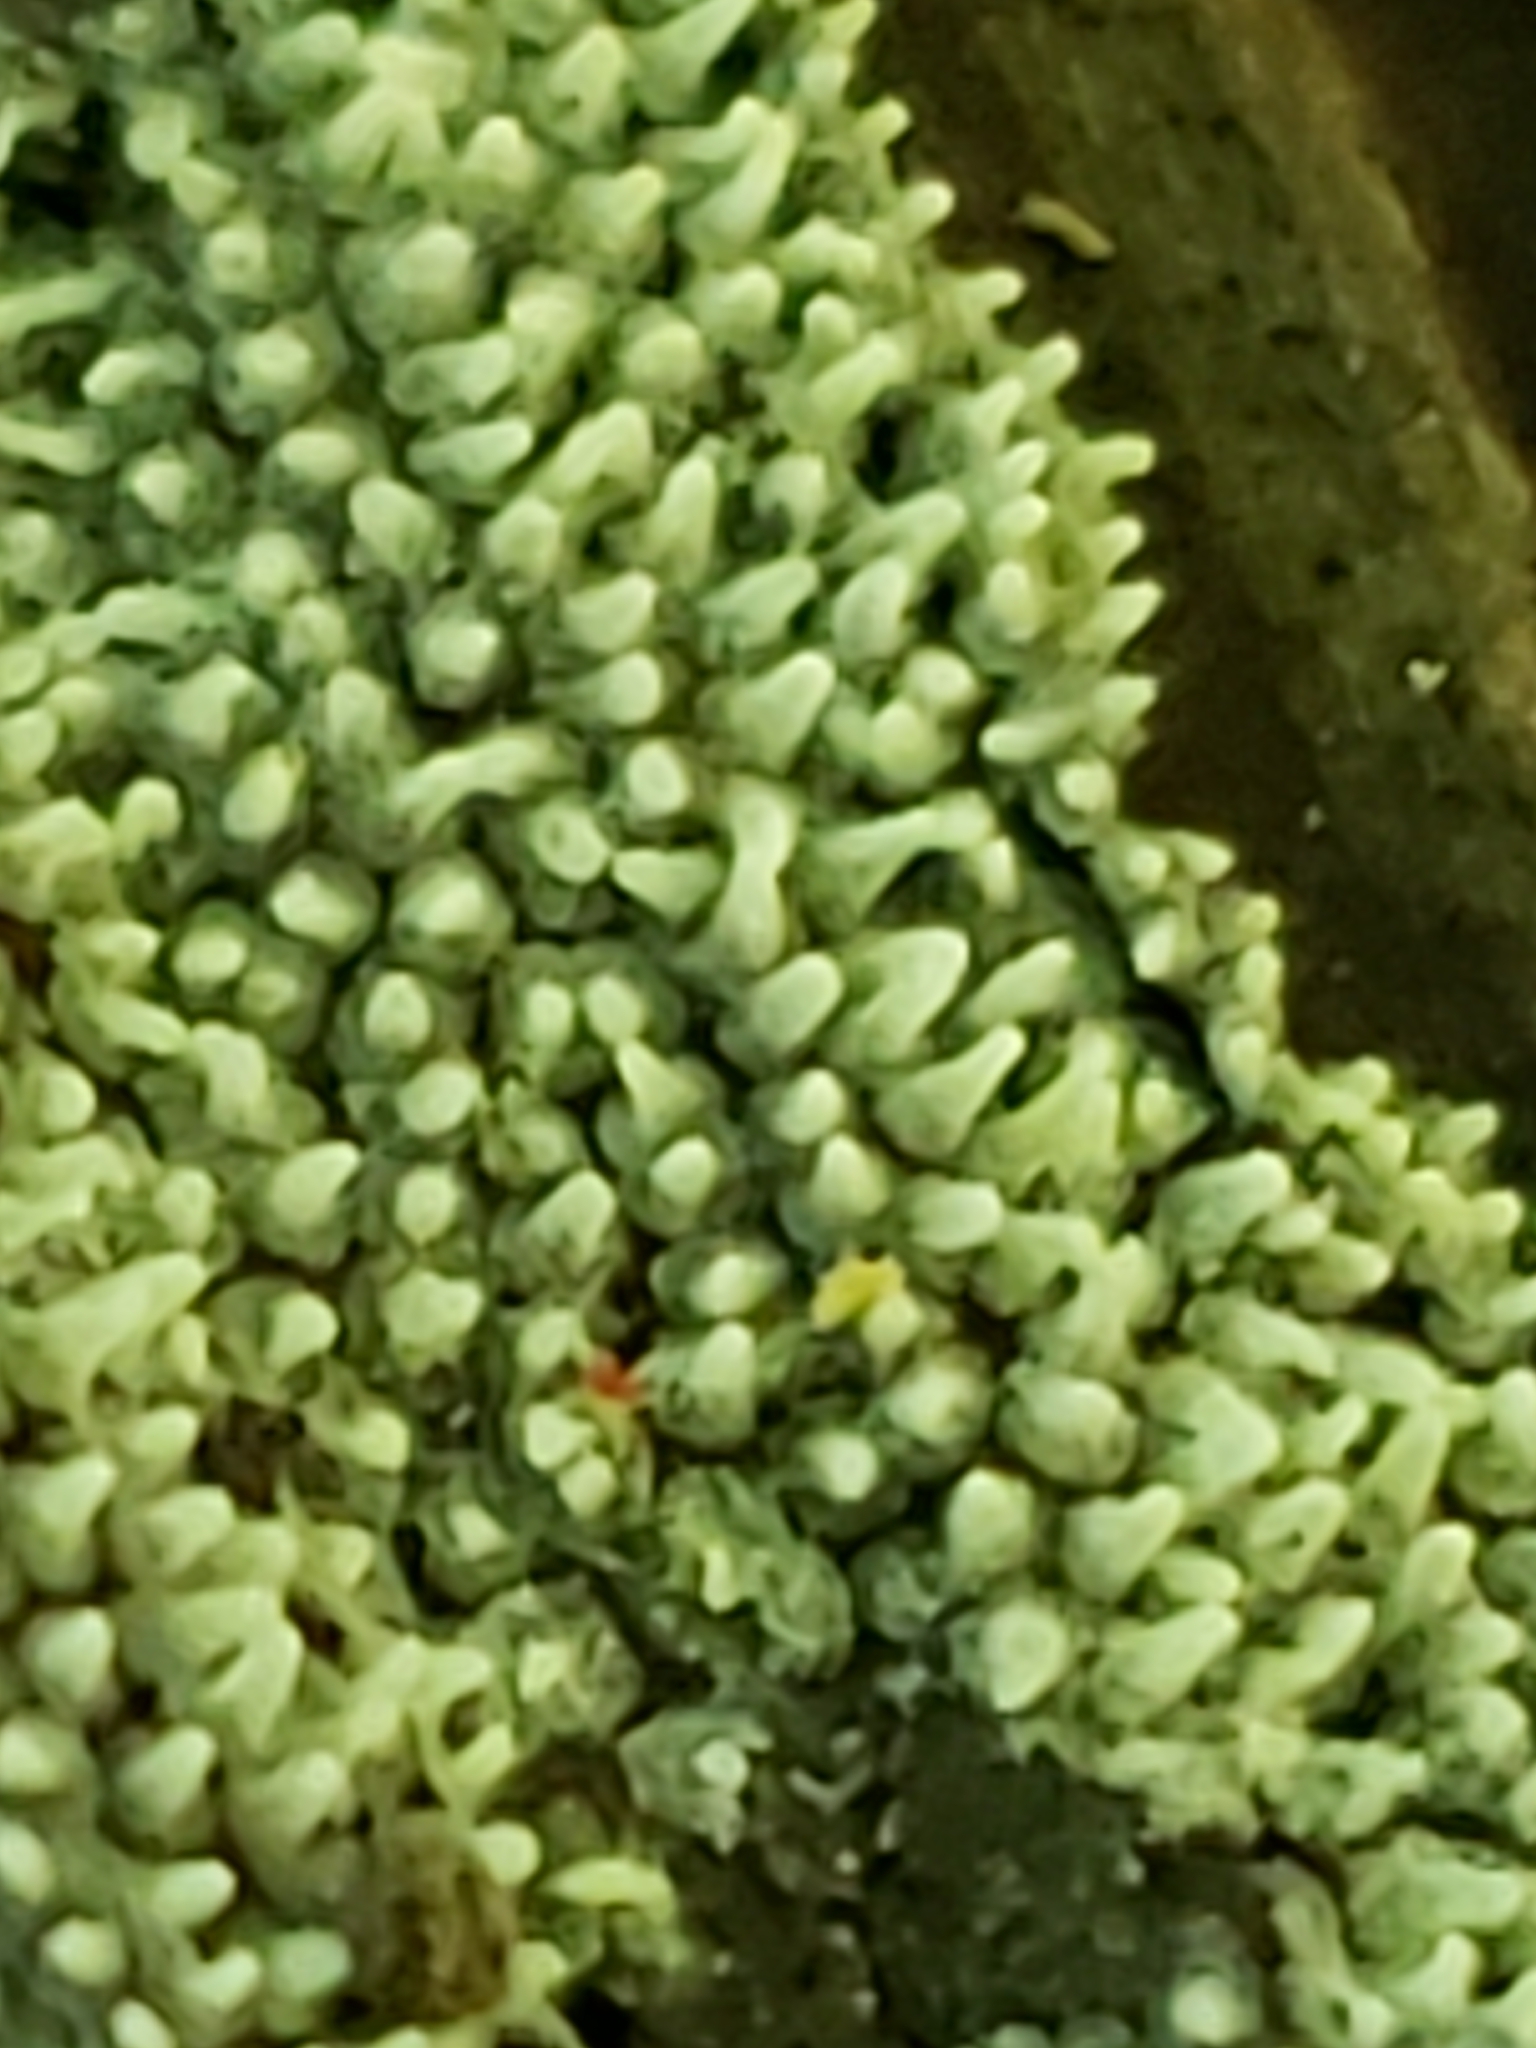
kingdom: Protozoa
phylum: Mycetozoa
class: Protosteliomycetes
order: Ceratiomyxales
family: Ceratiomyxaceae
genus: Ceratiomyxa
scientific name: Ceratiomyxa fruticulosa
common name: Honeycomb coral slime mold
